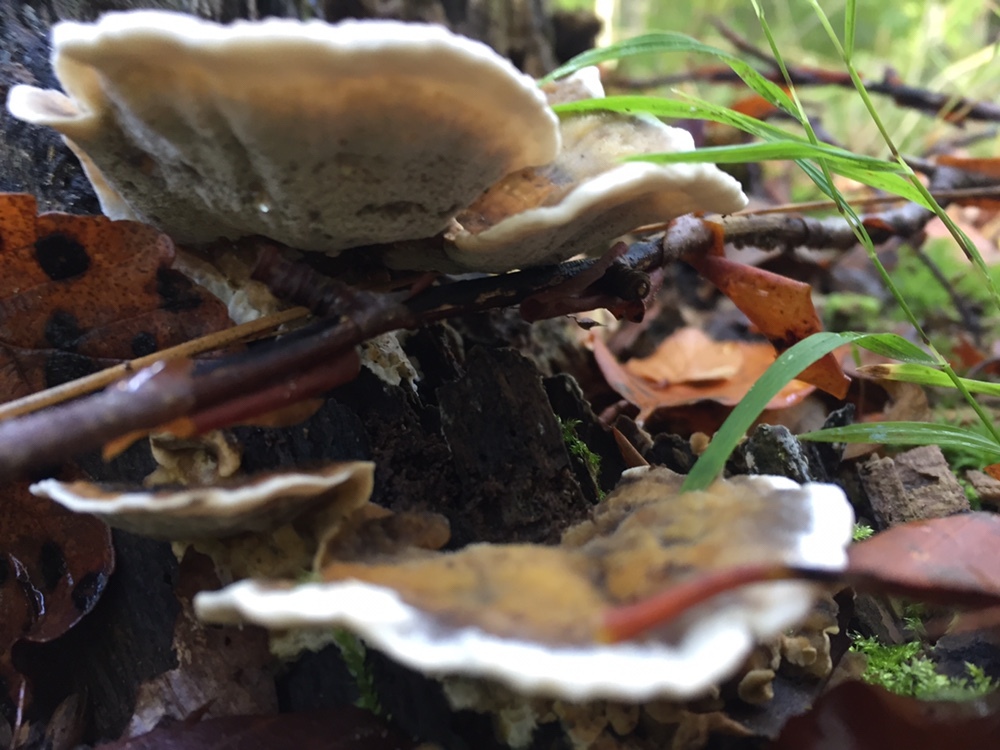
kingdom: Fungi
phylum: Basidiomycota
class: Agaricomycetes
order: Polyporales
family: Phanerochaetaceae
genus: Bjerkandera
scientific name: Bjerkandera adusta
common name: Smoky bracket
